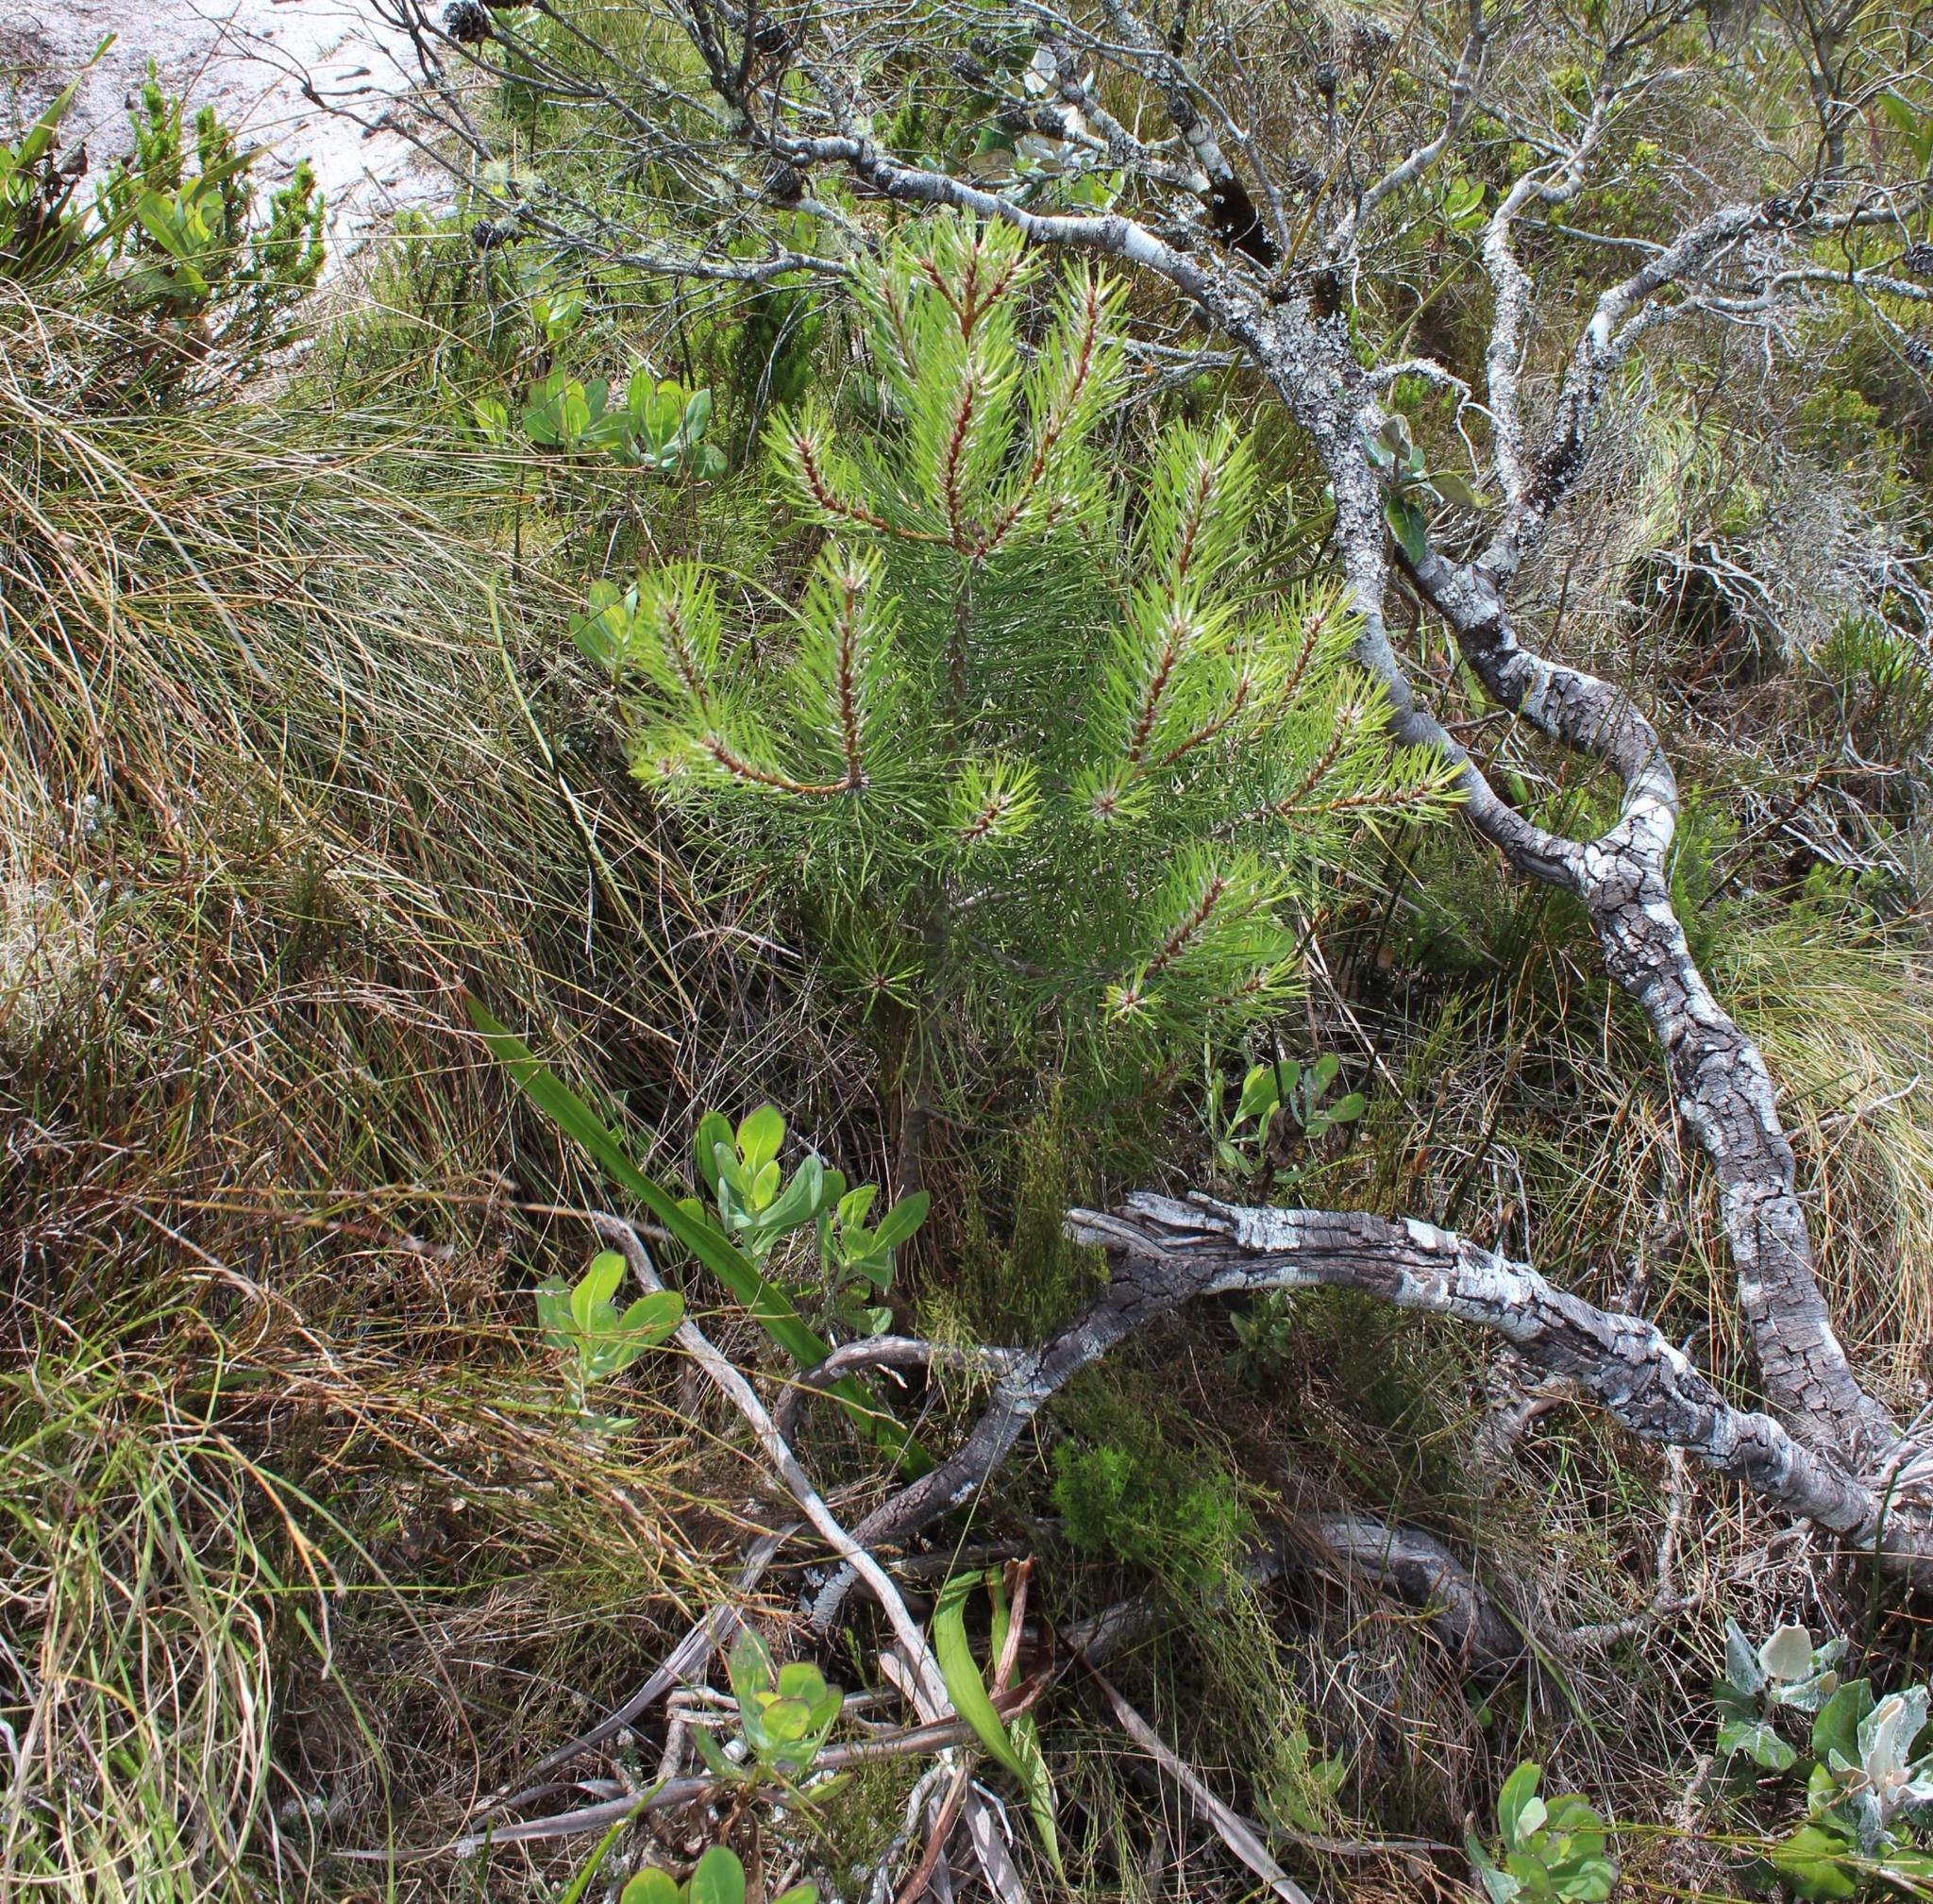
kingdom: Plantae
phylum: Tracheophyta
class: Pinopsida
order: Pinales
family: Pinaceae
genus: Pinus
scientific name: Pinus pinaster
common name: Maritime pine
